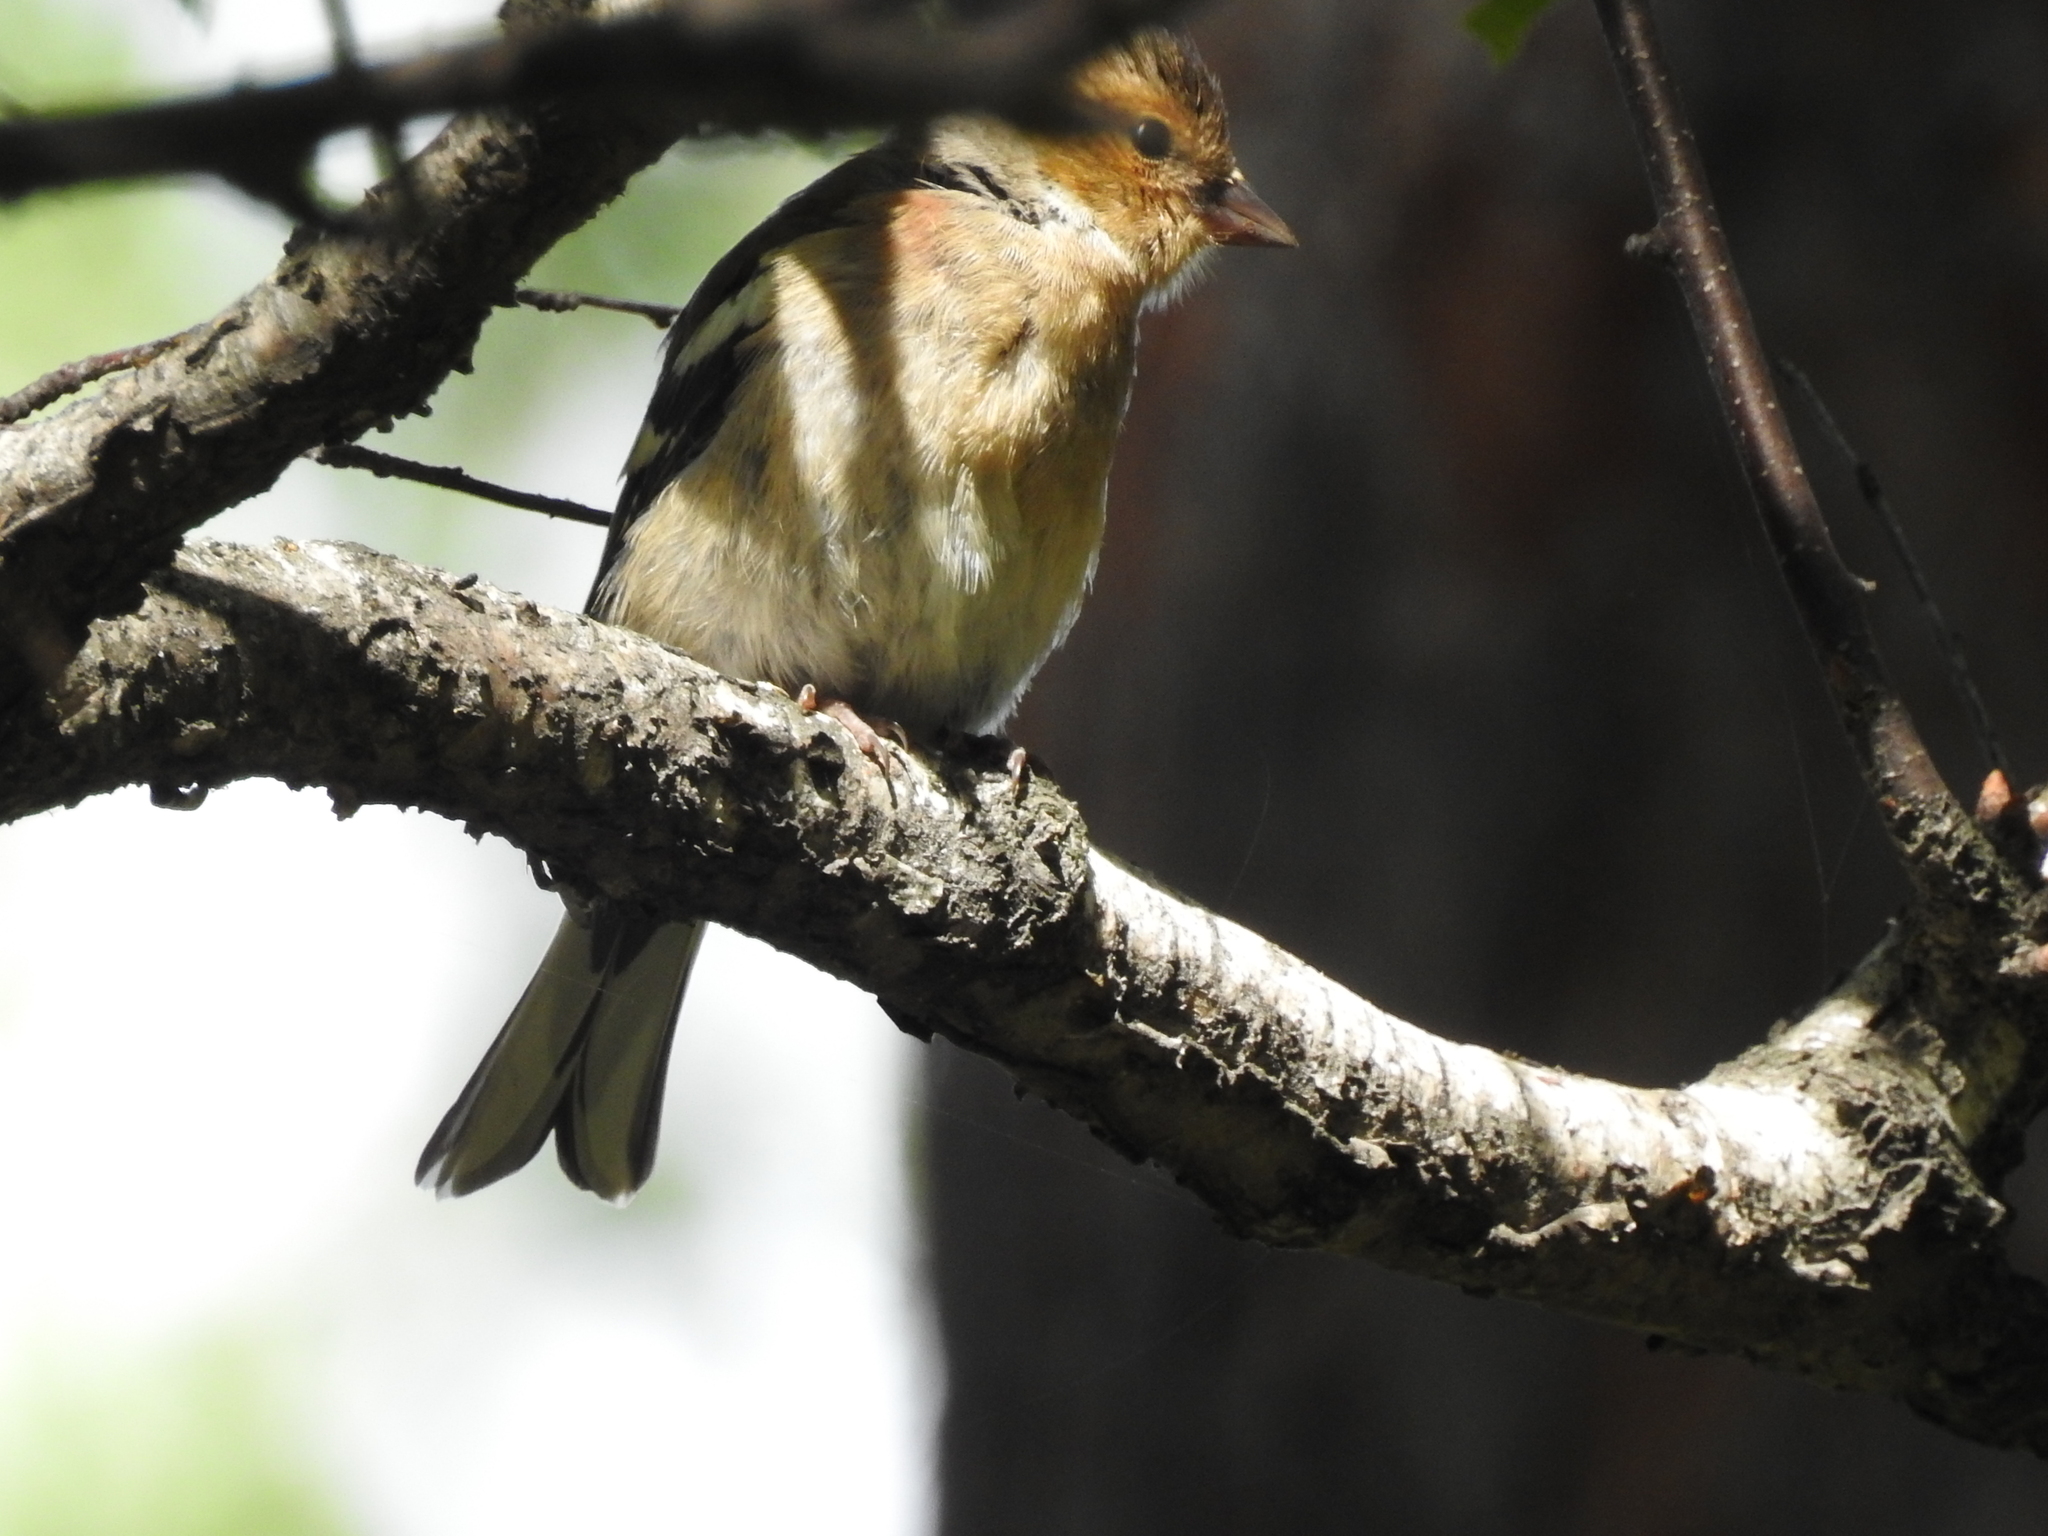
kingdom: Animalia
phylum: Chordata
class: Aves
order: Passeriformes
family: Fringillidae
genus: Fringilla
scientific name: Fringilla coelebs
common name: Common chaffinch
